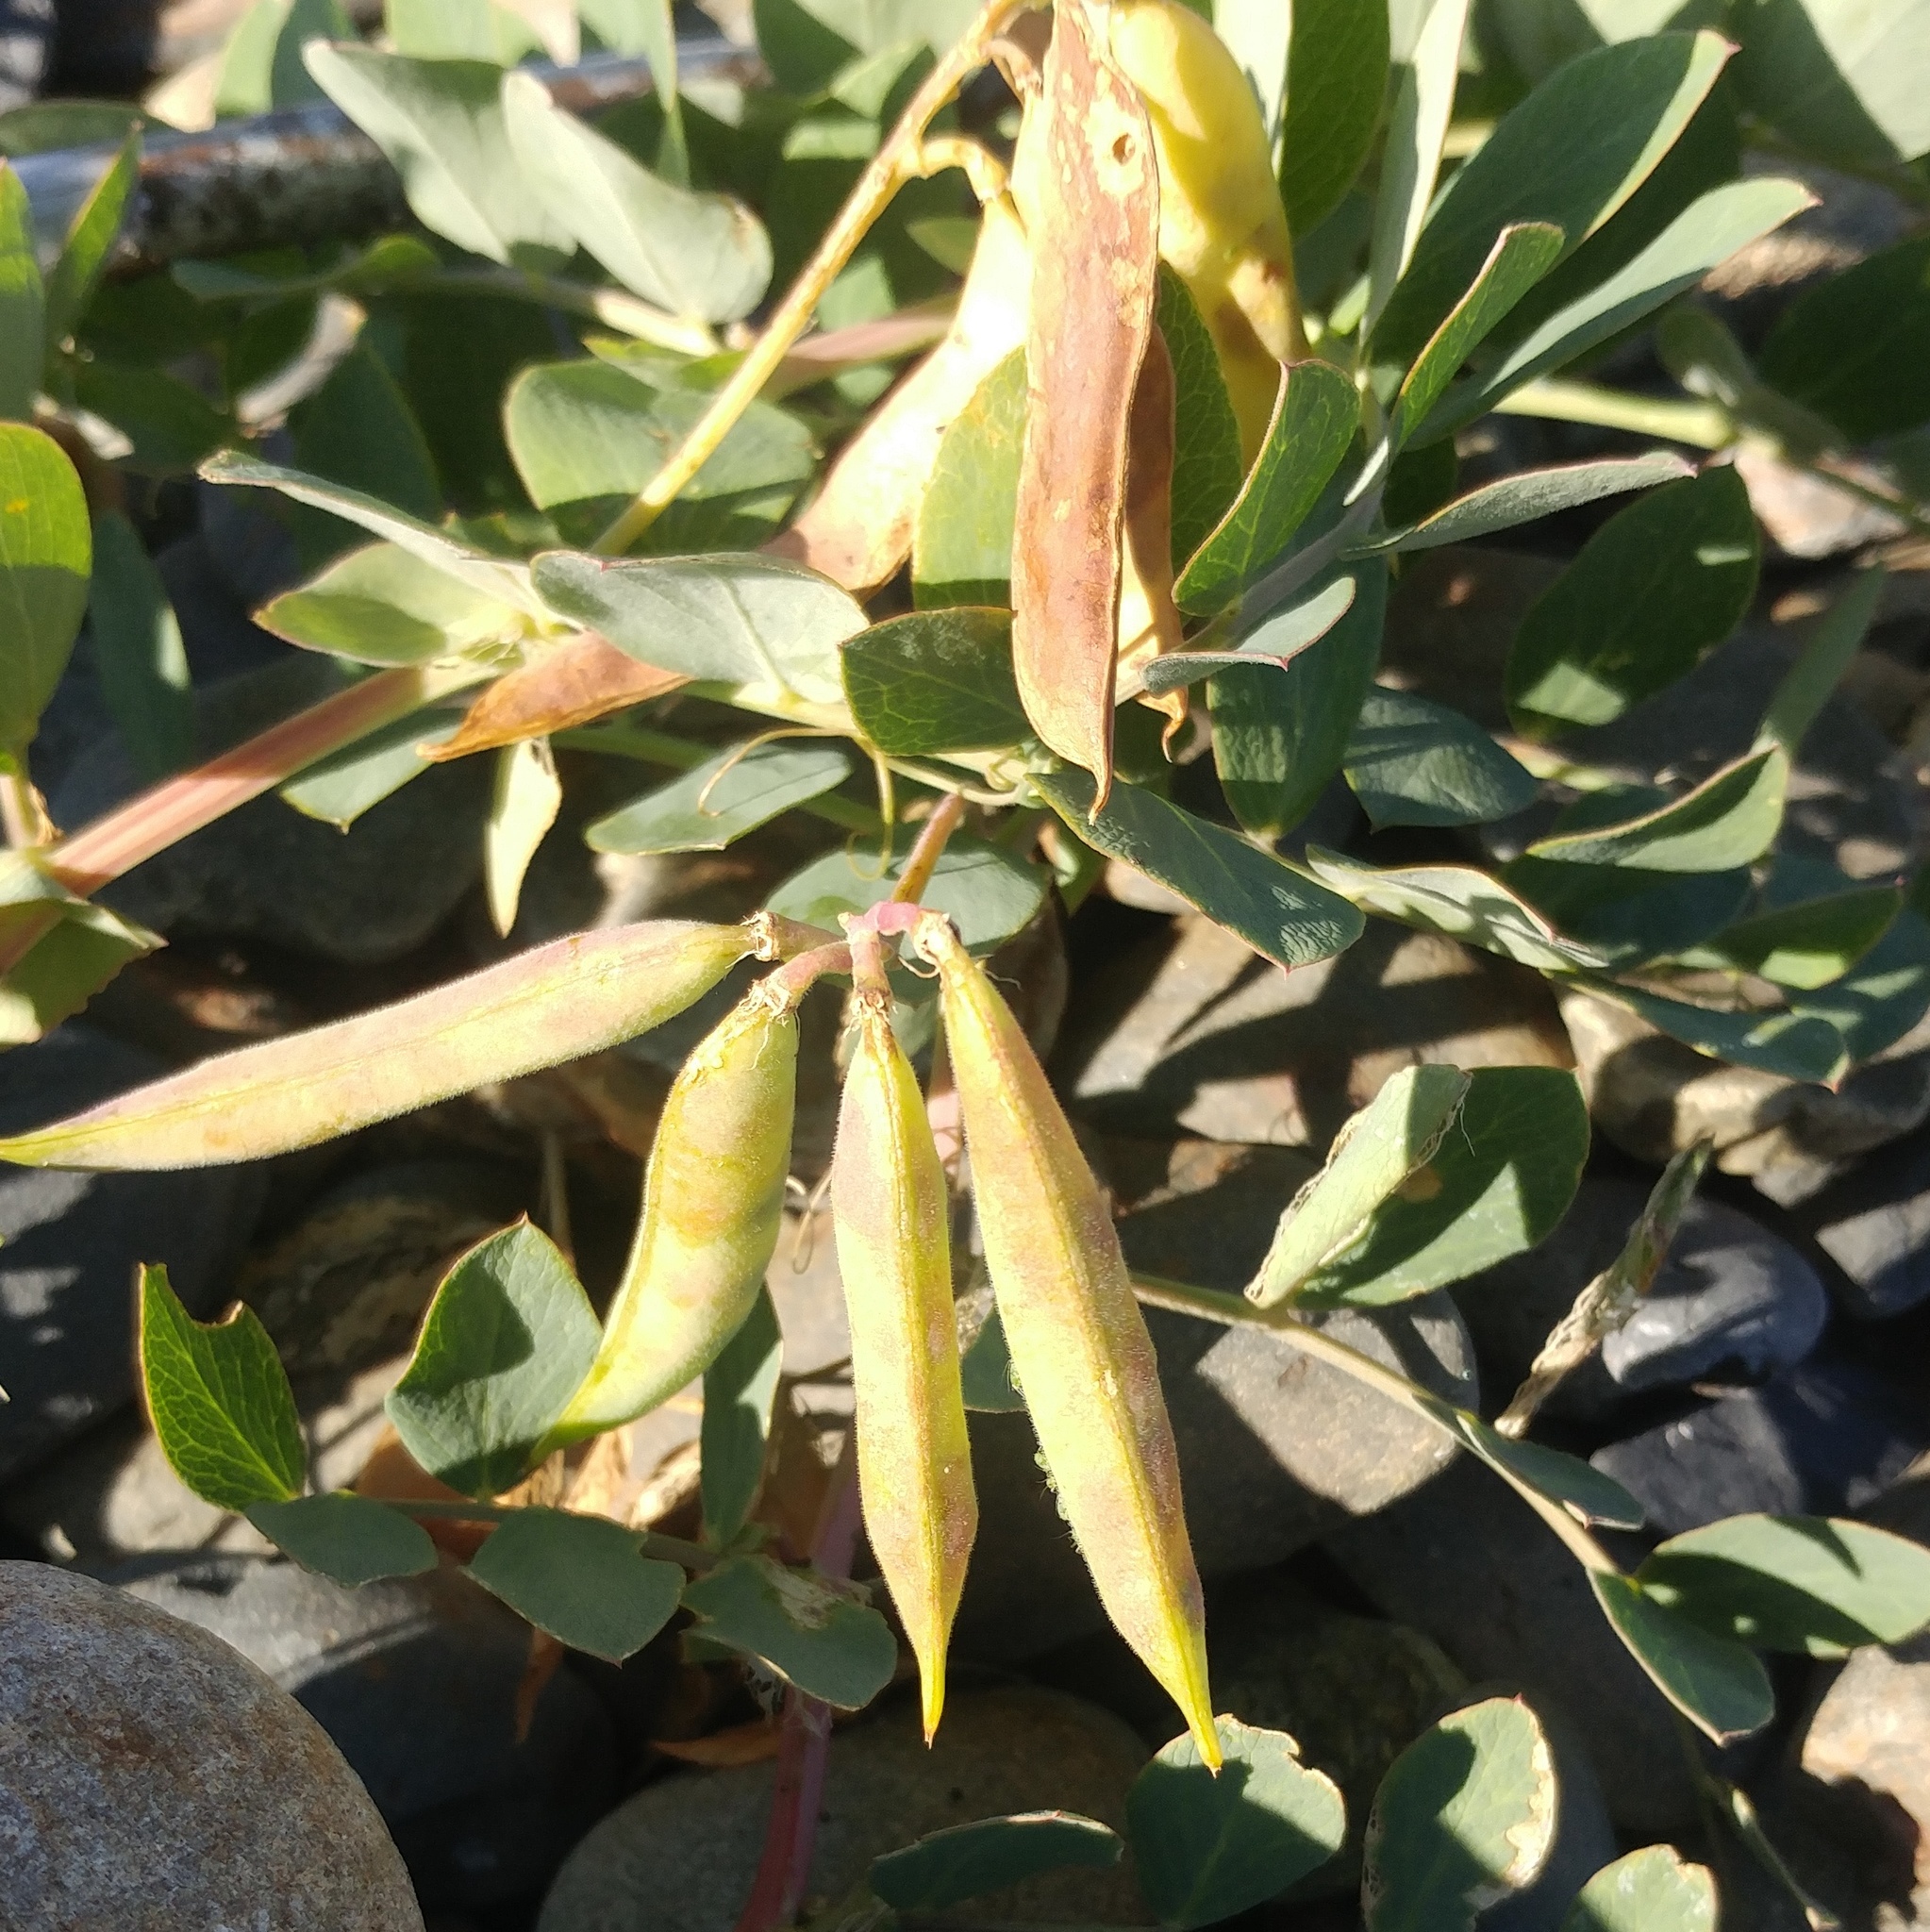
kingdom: Plantae
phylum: Tracheophyta
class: Magnoliopsida
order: Fabales
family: Fabaceae
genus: Lathyrus
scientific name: Lathyrus japonicus
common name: Sea pea
